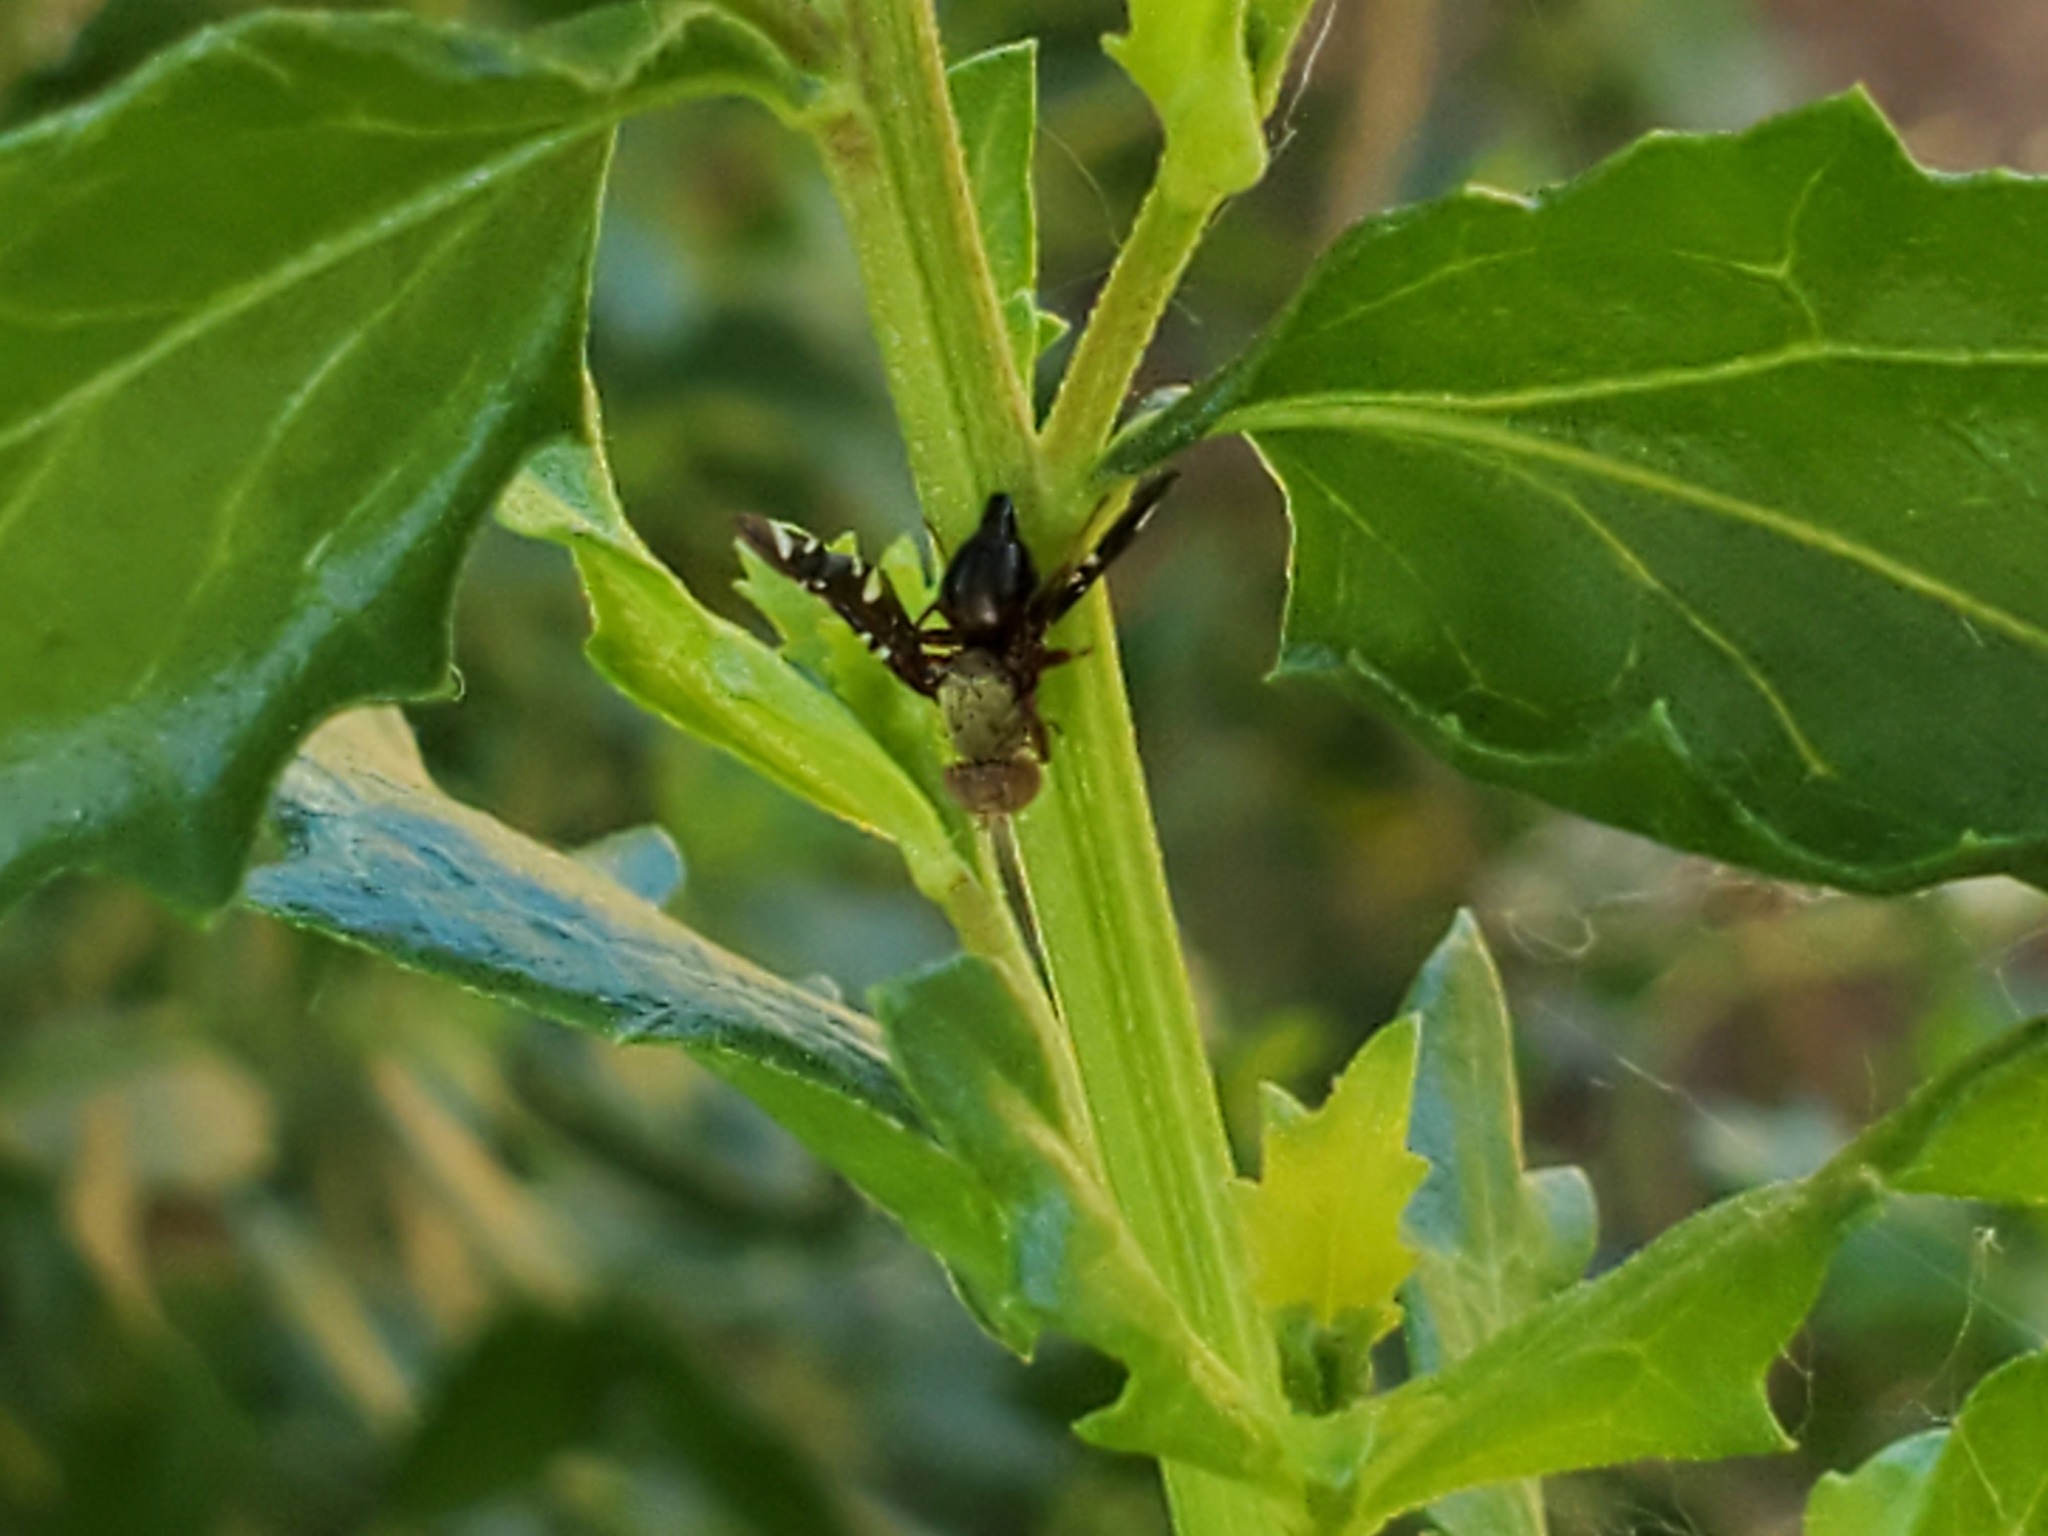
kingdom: Animalia
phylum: Arthropoda
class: Insecta
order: Diptera
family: Tephritidae
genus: Aciurina
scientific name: Aciurina thoracica
